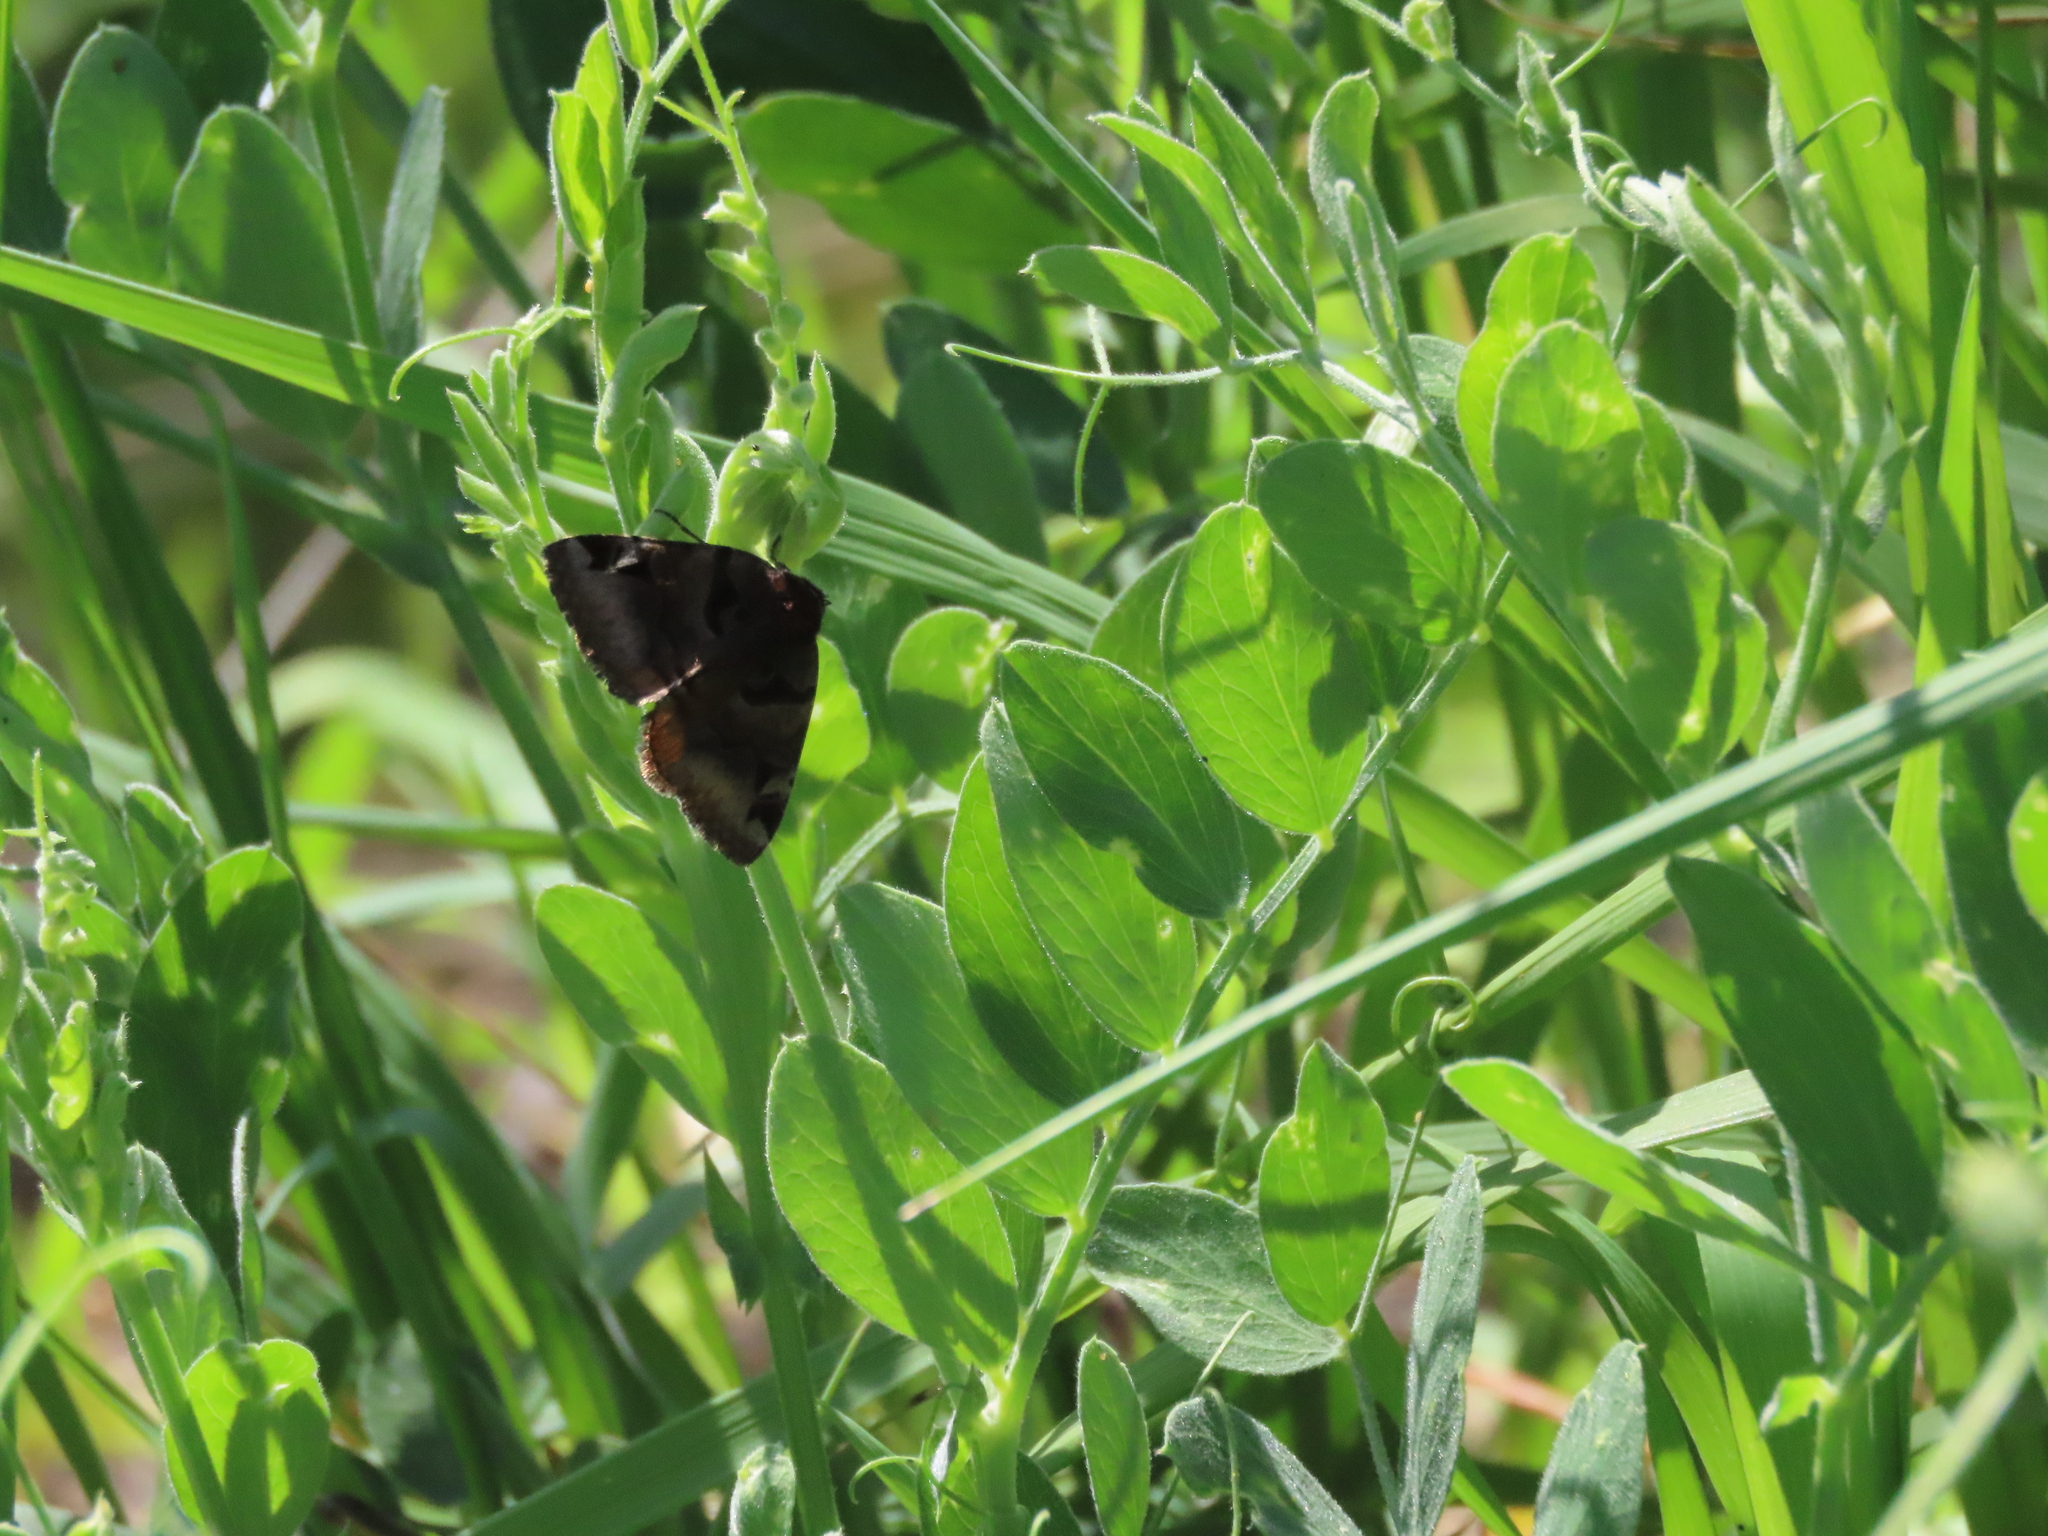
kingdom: Animalia
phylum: Arthropoda
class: Insecta
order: Lepidoptera
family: Erebidae
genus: Euclidia
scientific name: Euclidia ardita
